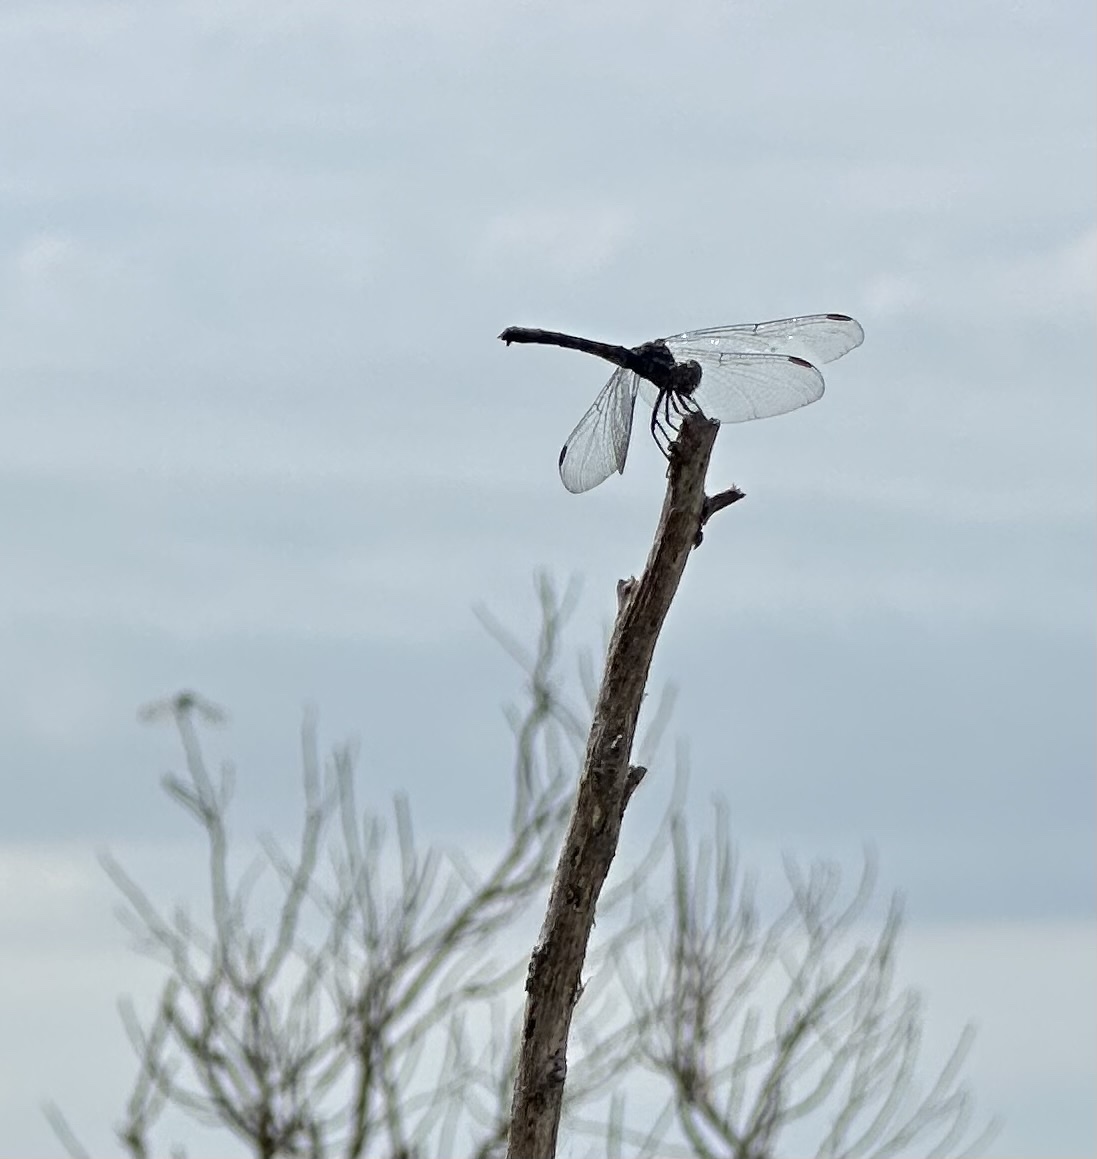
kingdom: Animalia
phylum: Arthropoda
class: Insecta
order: Odonata
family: Libellulidae
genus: Erythrodiplax
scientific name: Erythrodiplax berenice
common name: Seaside dragonlet
